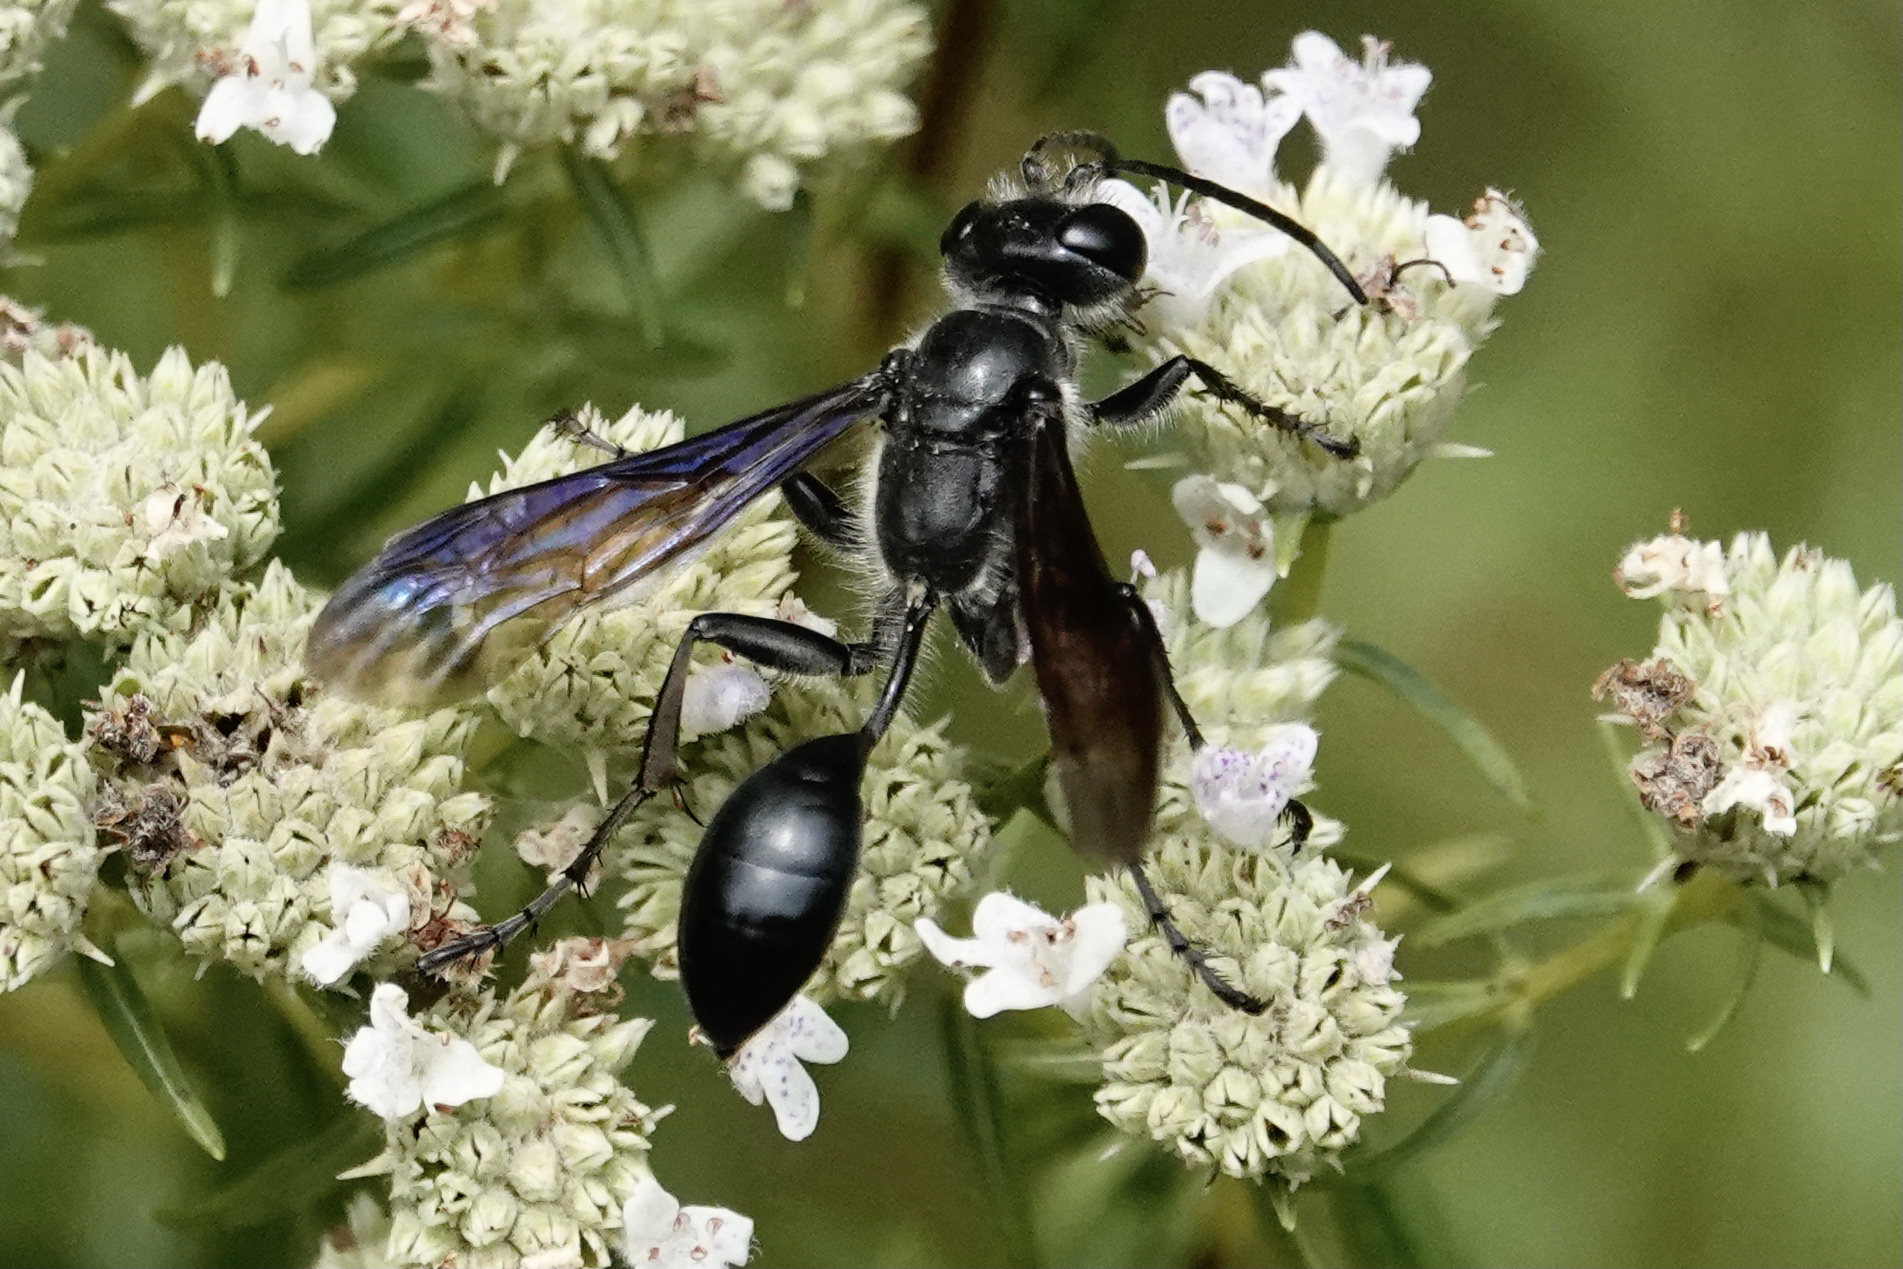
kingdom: Animalia
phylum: Arthropoda
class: Insecta
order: Hymenoptera
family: Sphecidae
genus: Isodontia
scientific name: Isodontia mexicana
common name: Mud dauber
